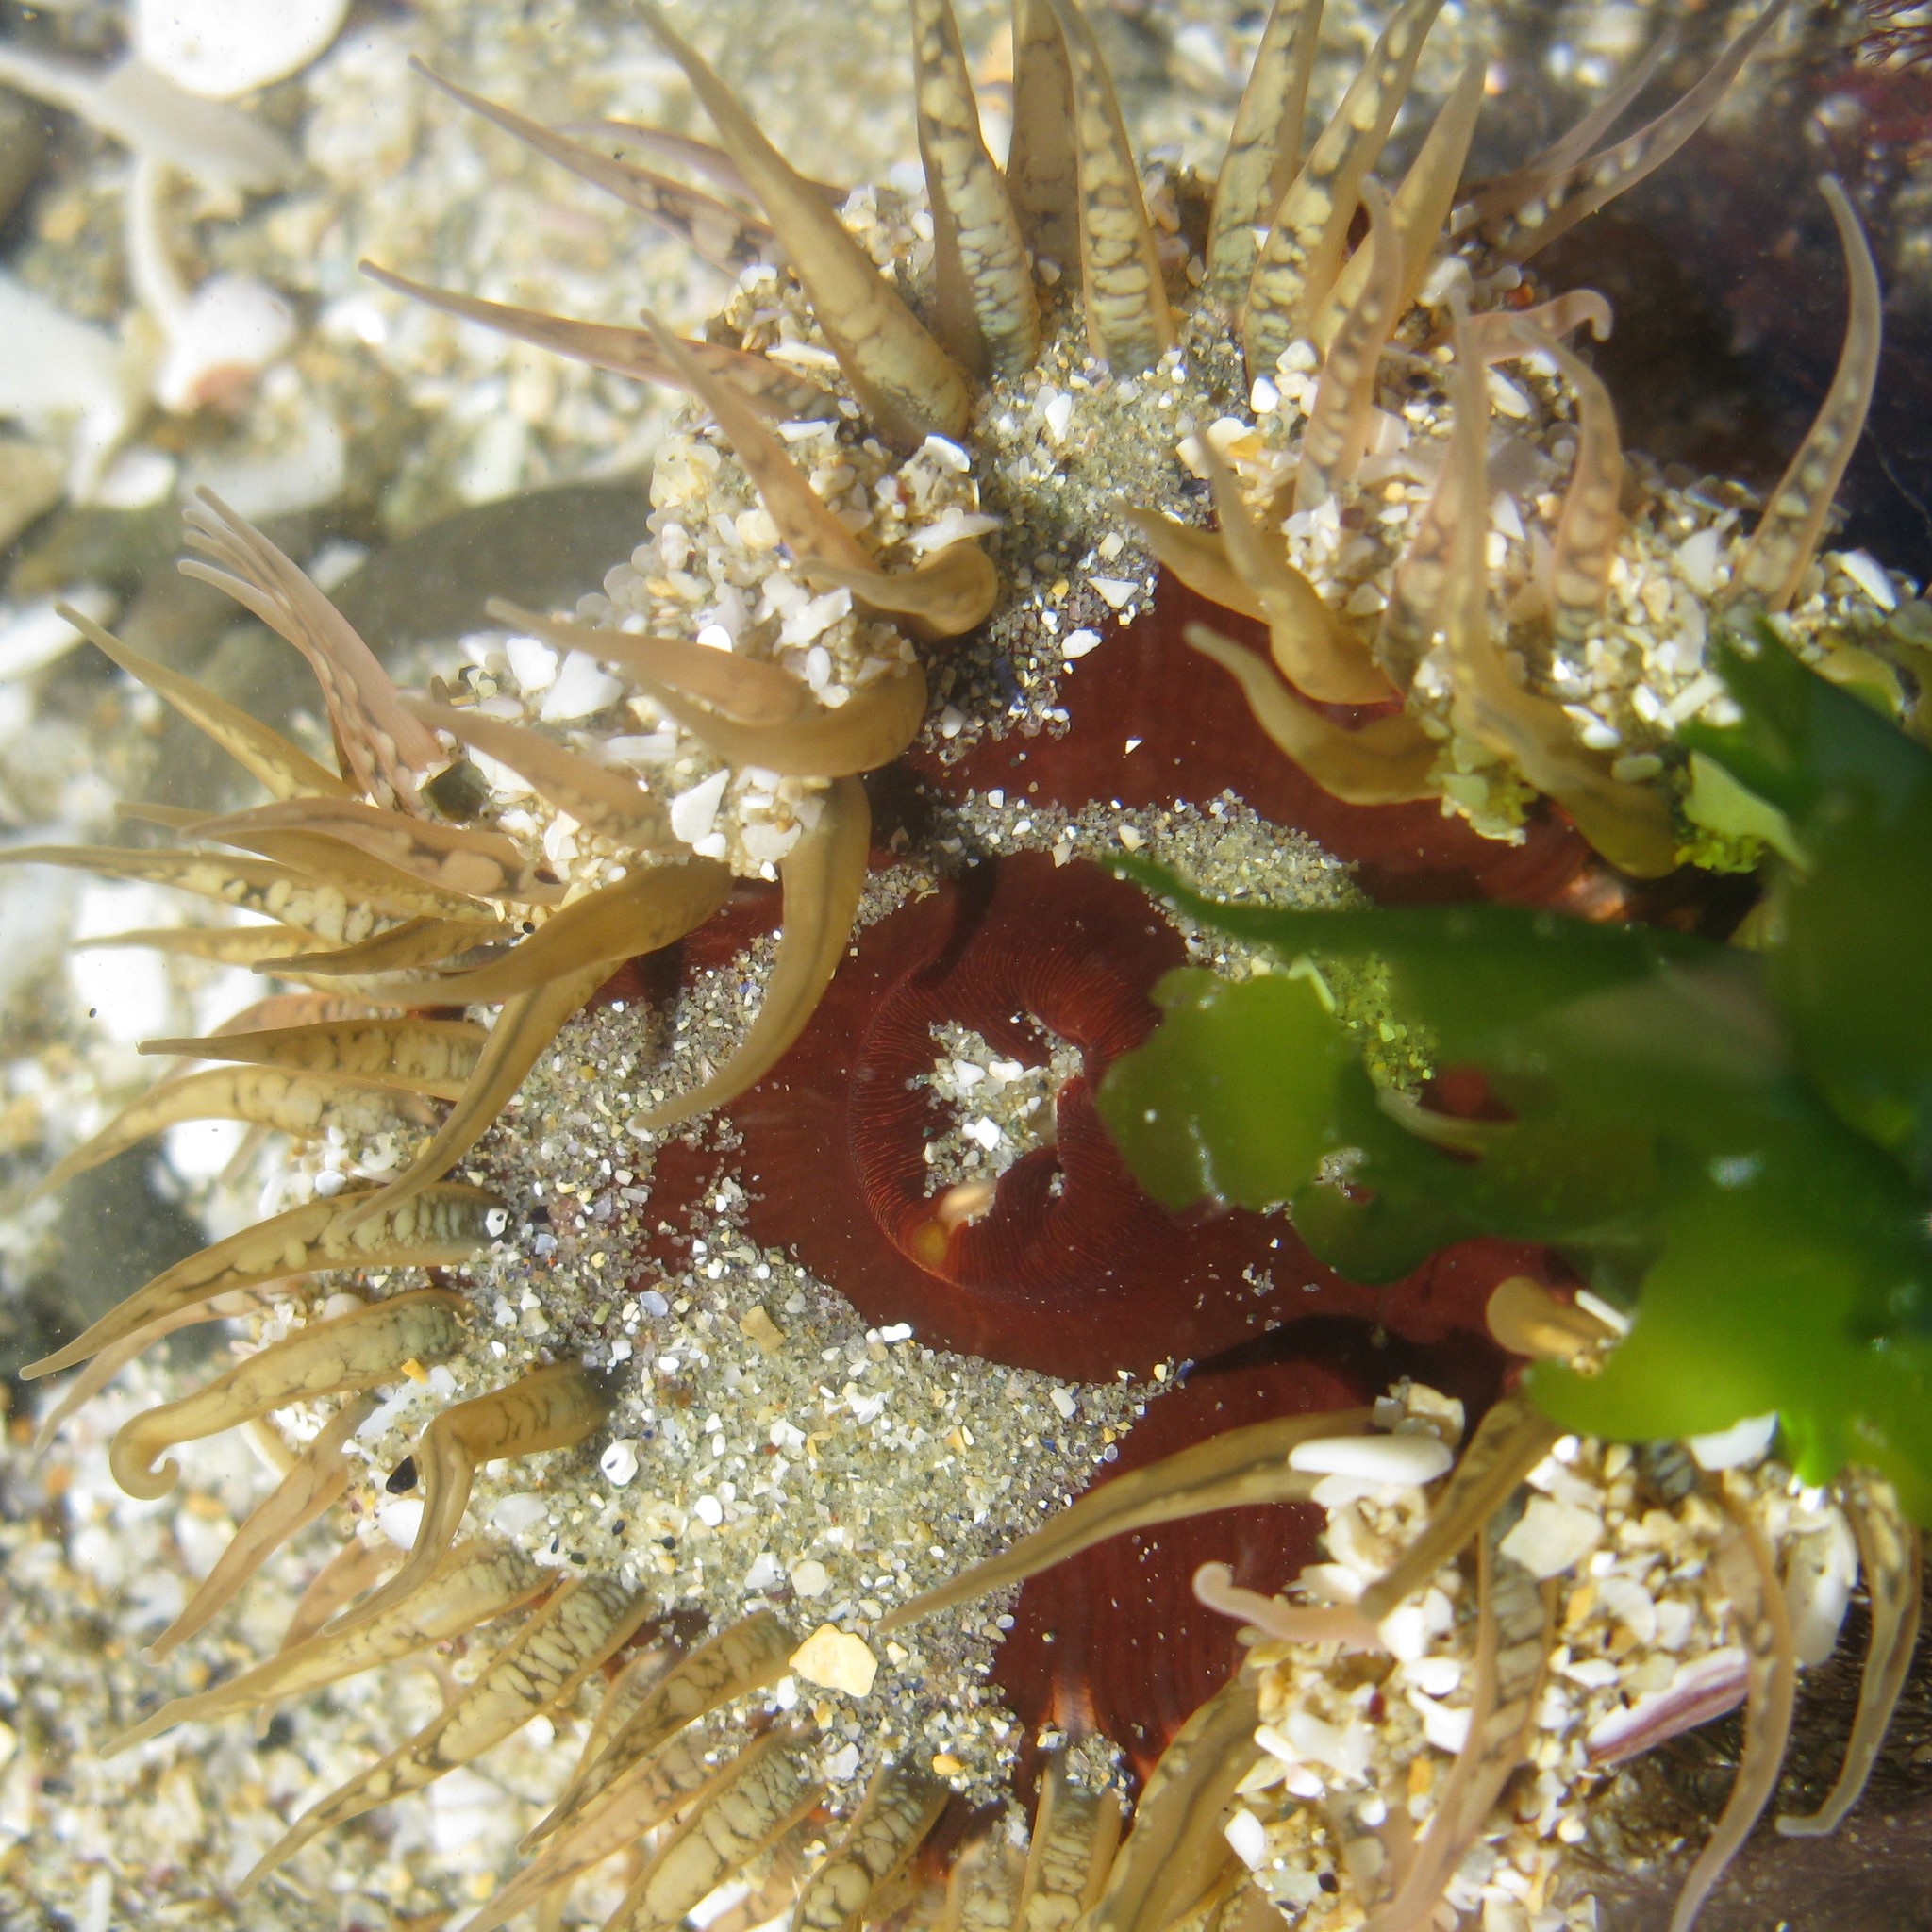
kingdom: Animalia
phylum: Cnidaria
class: Anthozoa
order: Actiniaria
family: Actiniidae
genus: Oulactis
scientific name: Oulactis muscosa
